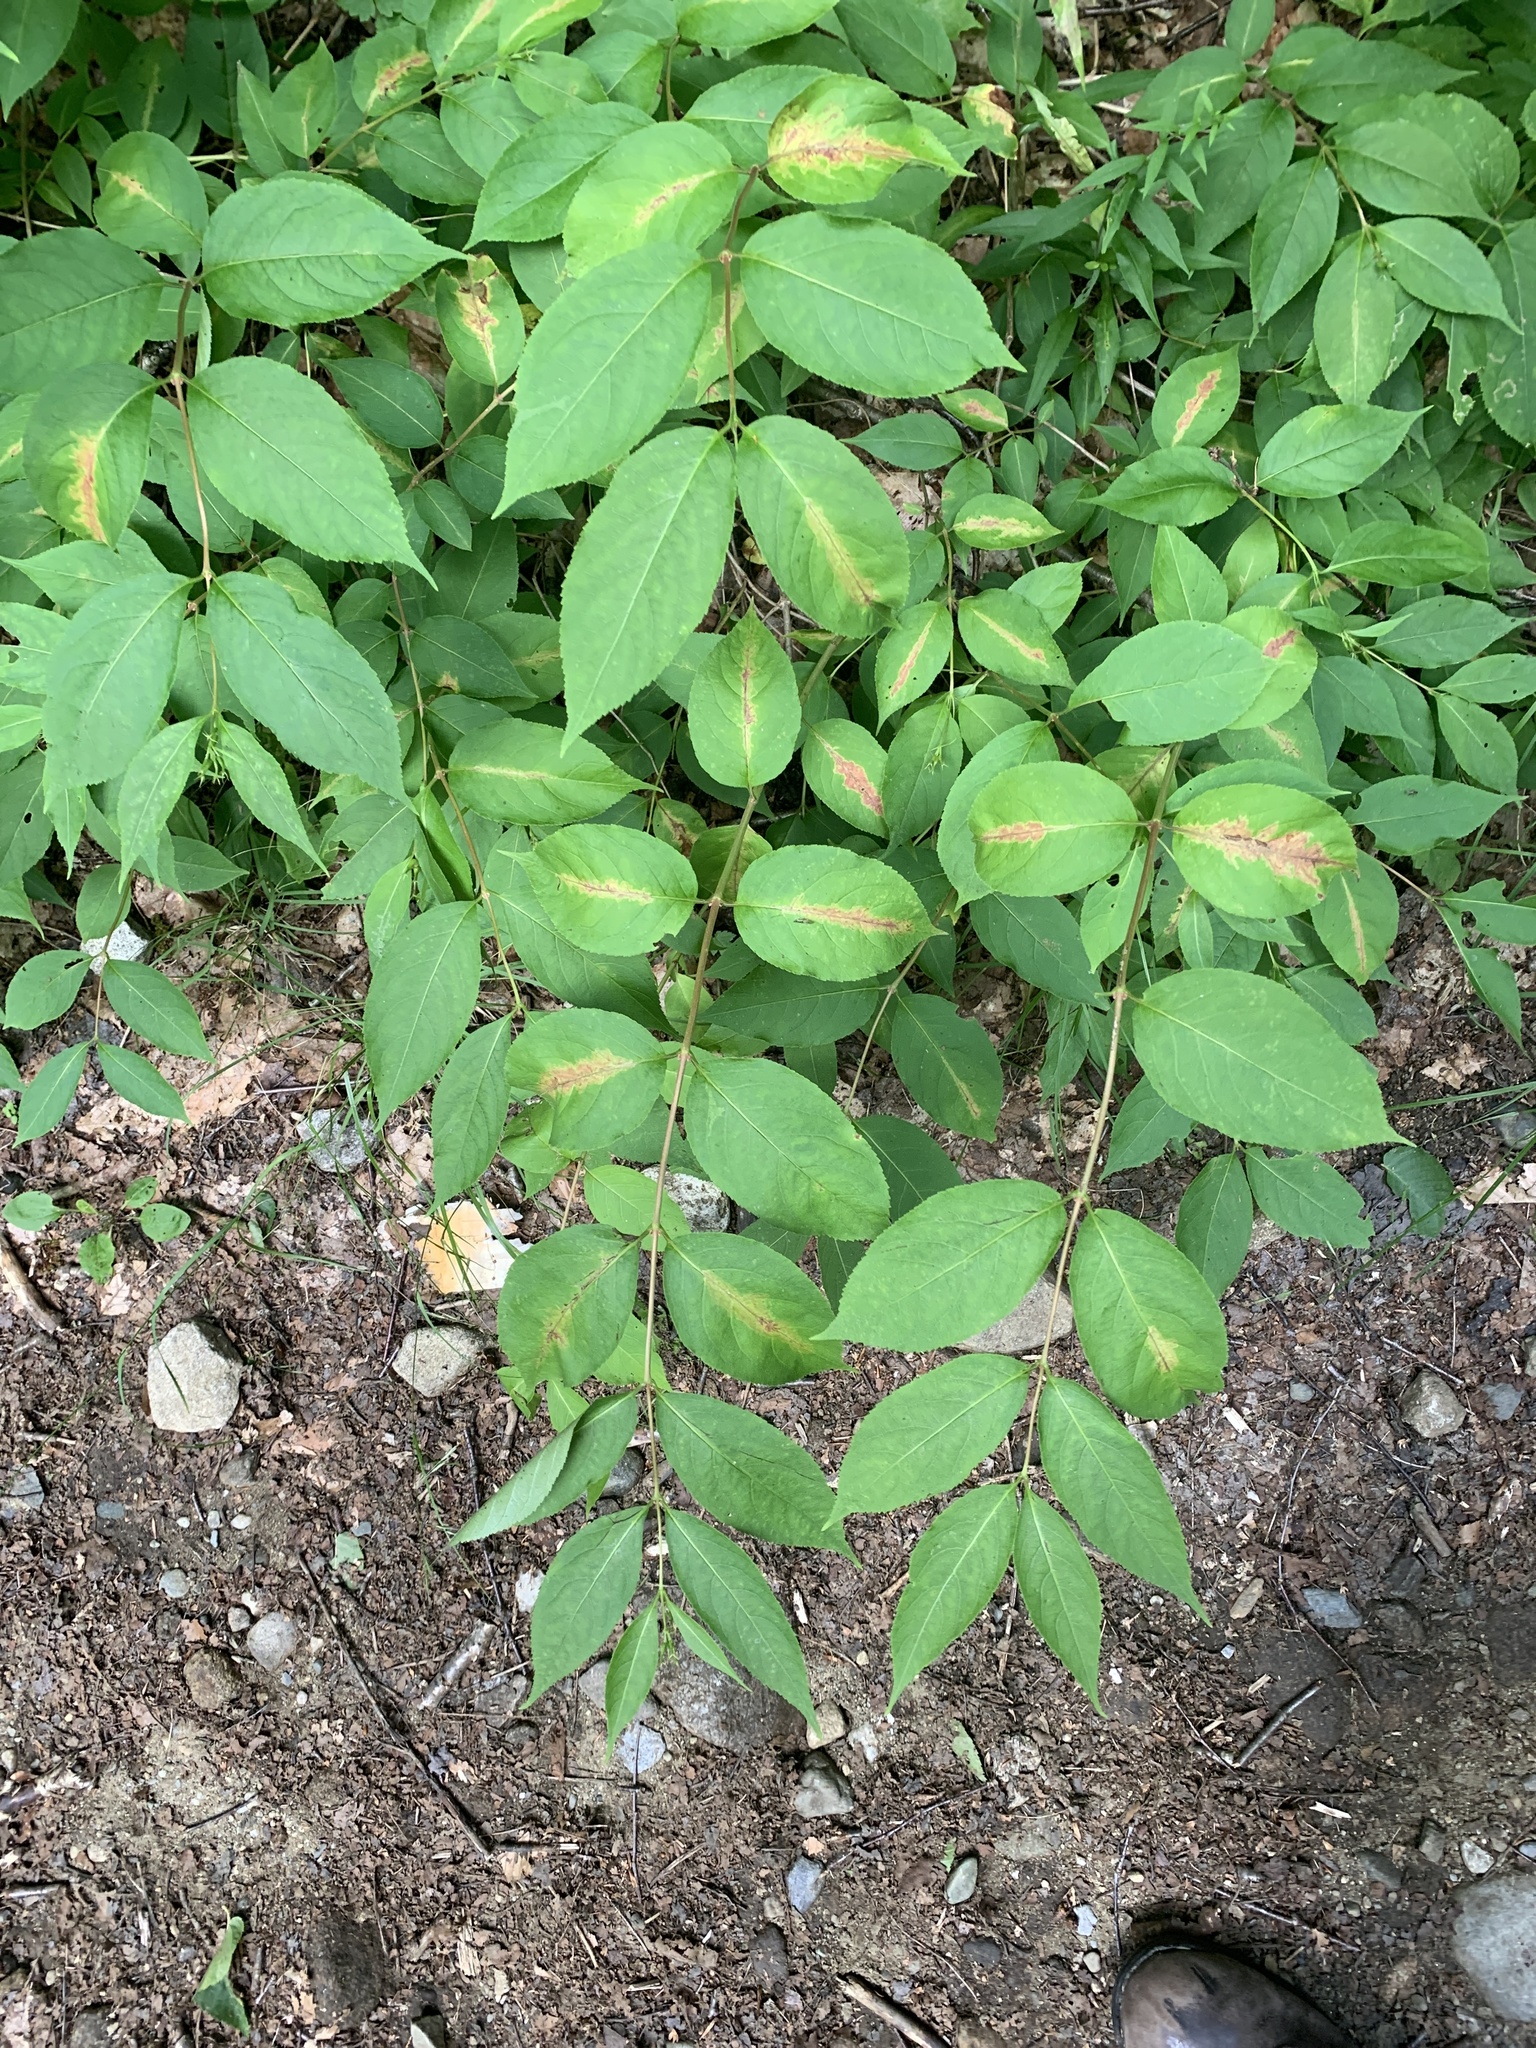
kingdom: Plantae
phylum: Tracheophyta
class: Magnoliopsida
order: Dipsacales
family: Caprifoliaceae
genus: Diervilla
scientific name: Diervilla lonicera
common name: Bush-honeysuckle
